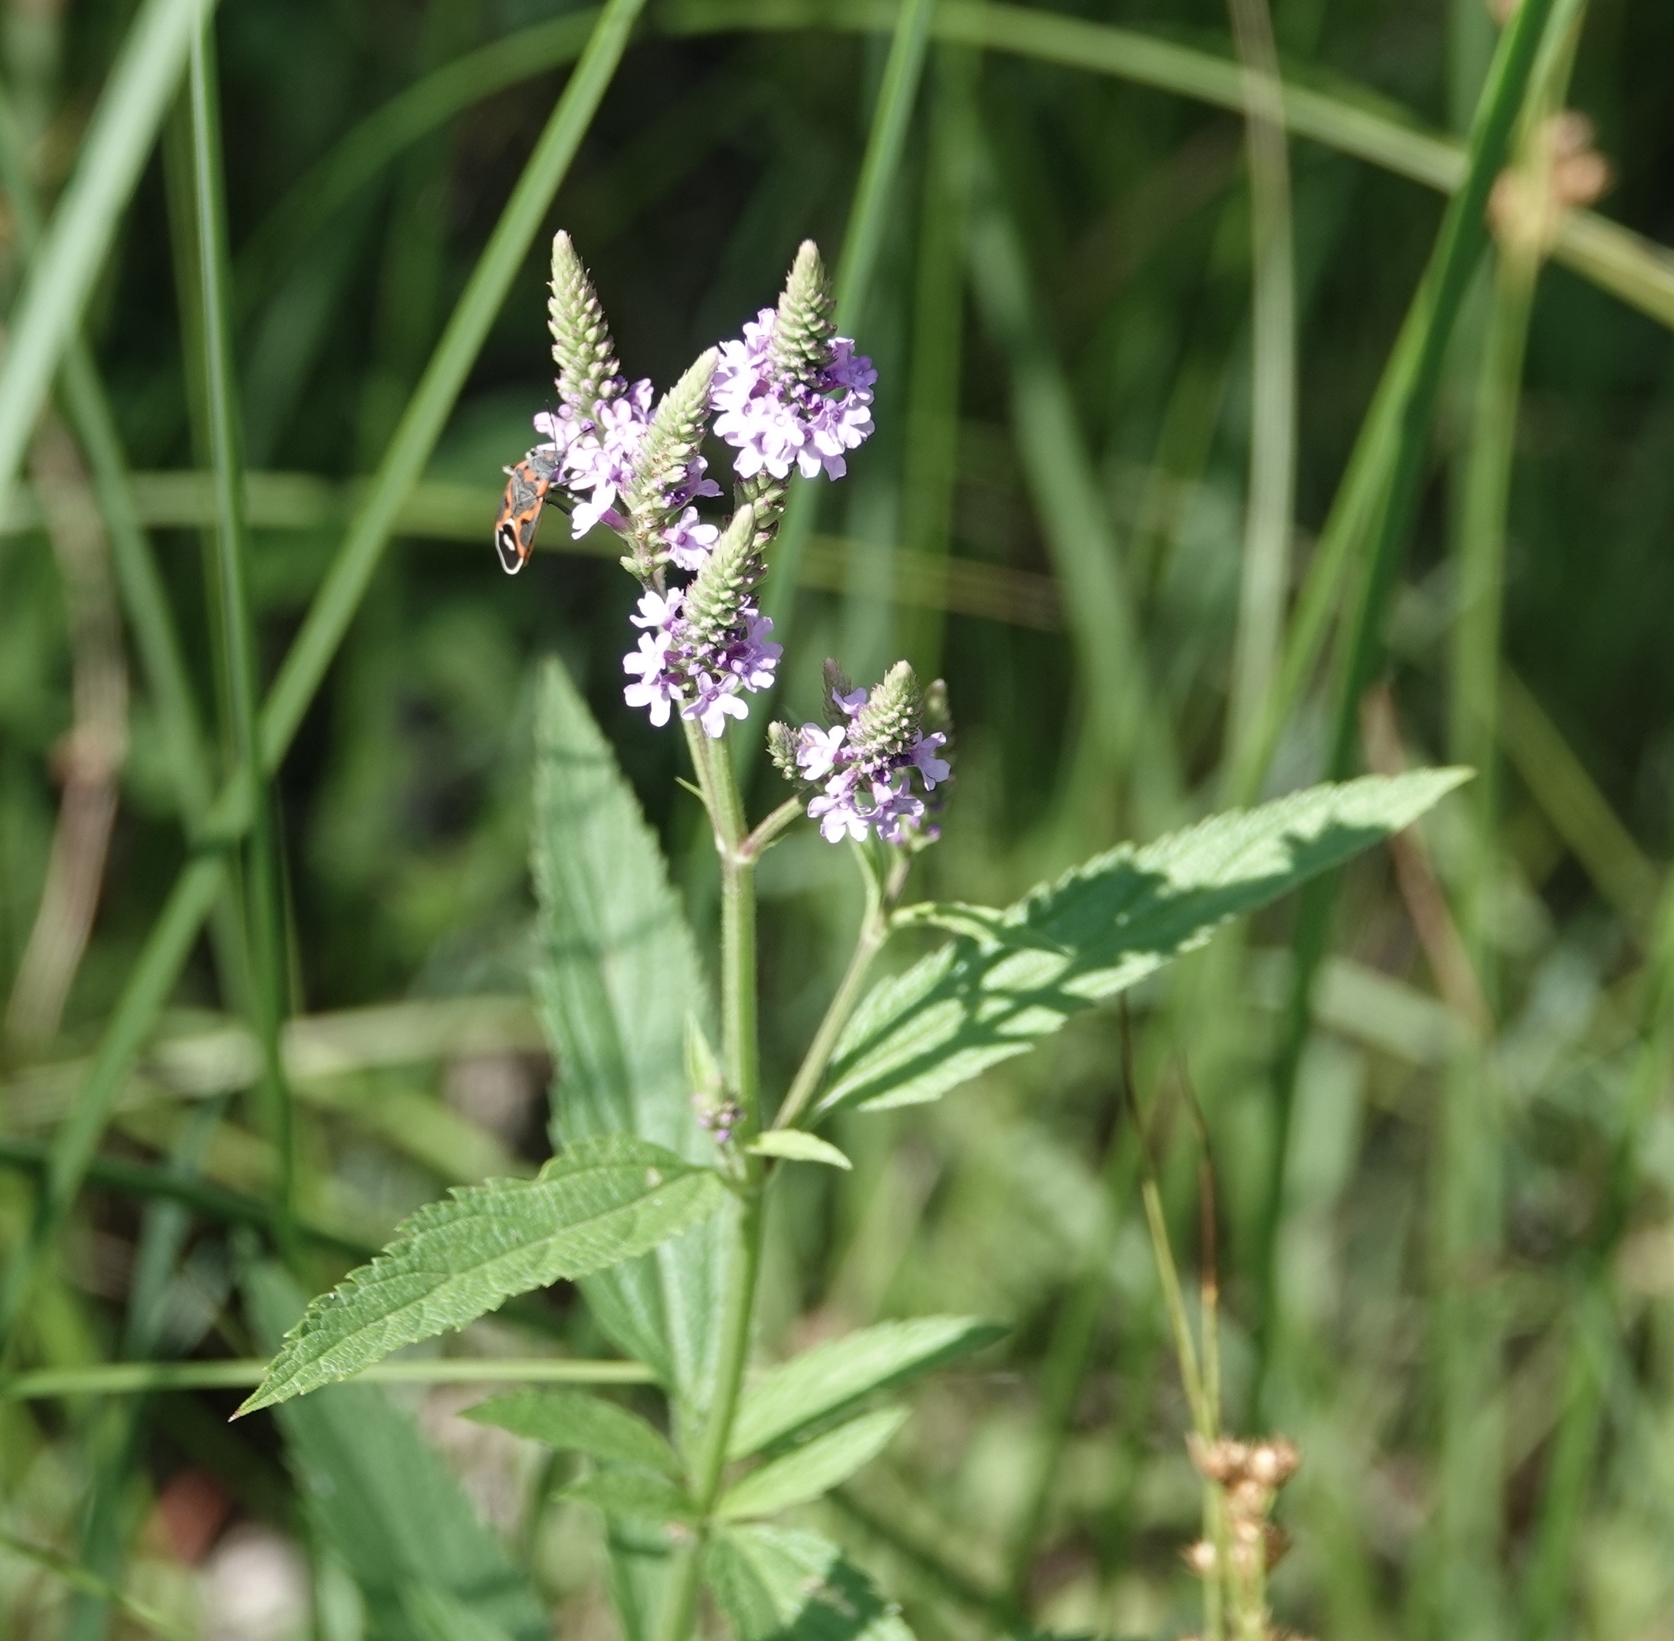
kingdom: Plantae
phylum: Tracheophyta
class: Magnoliopsida
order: Lamiales
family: Verbenaceae
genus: Verbena
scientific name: Verbena hastata
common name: American blue vervain
